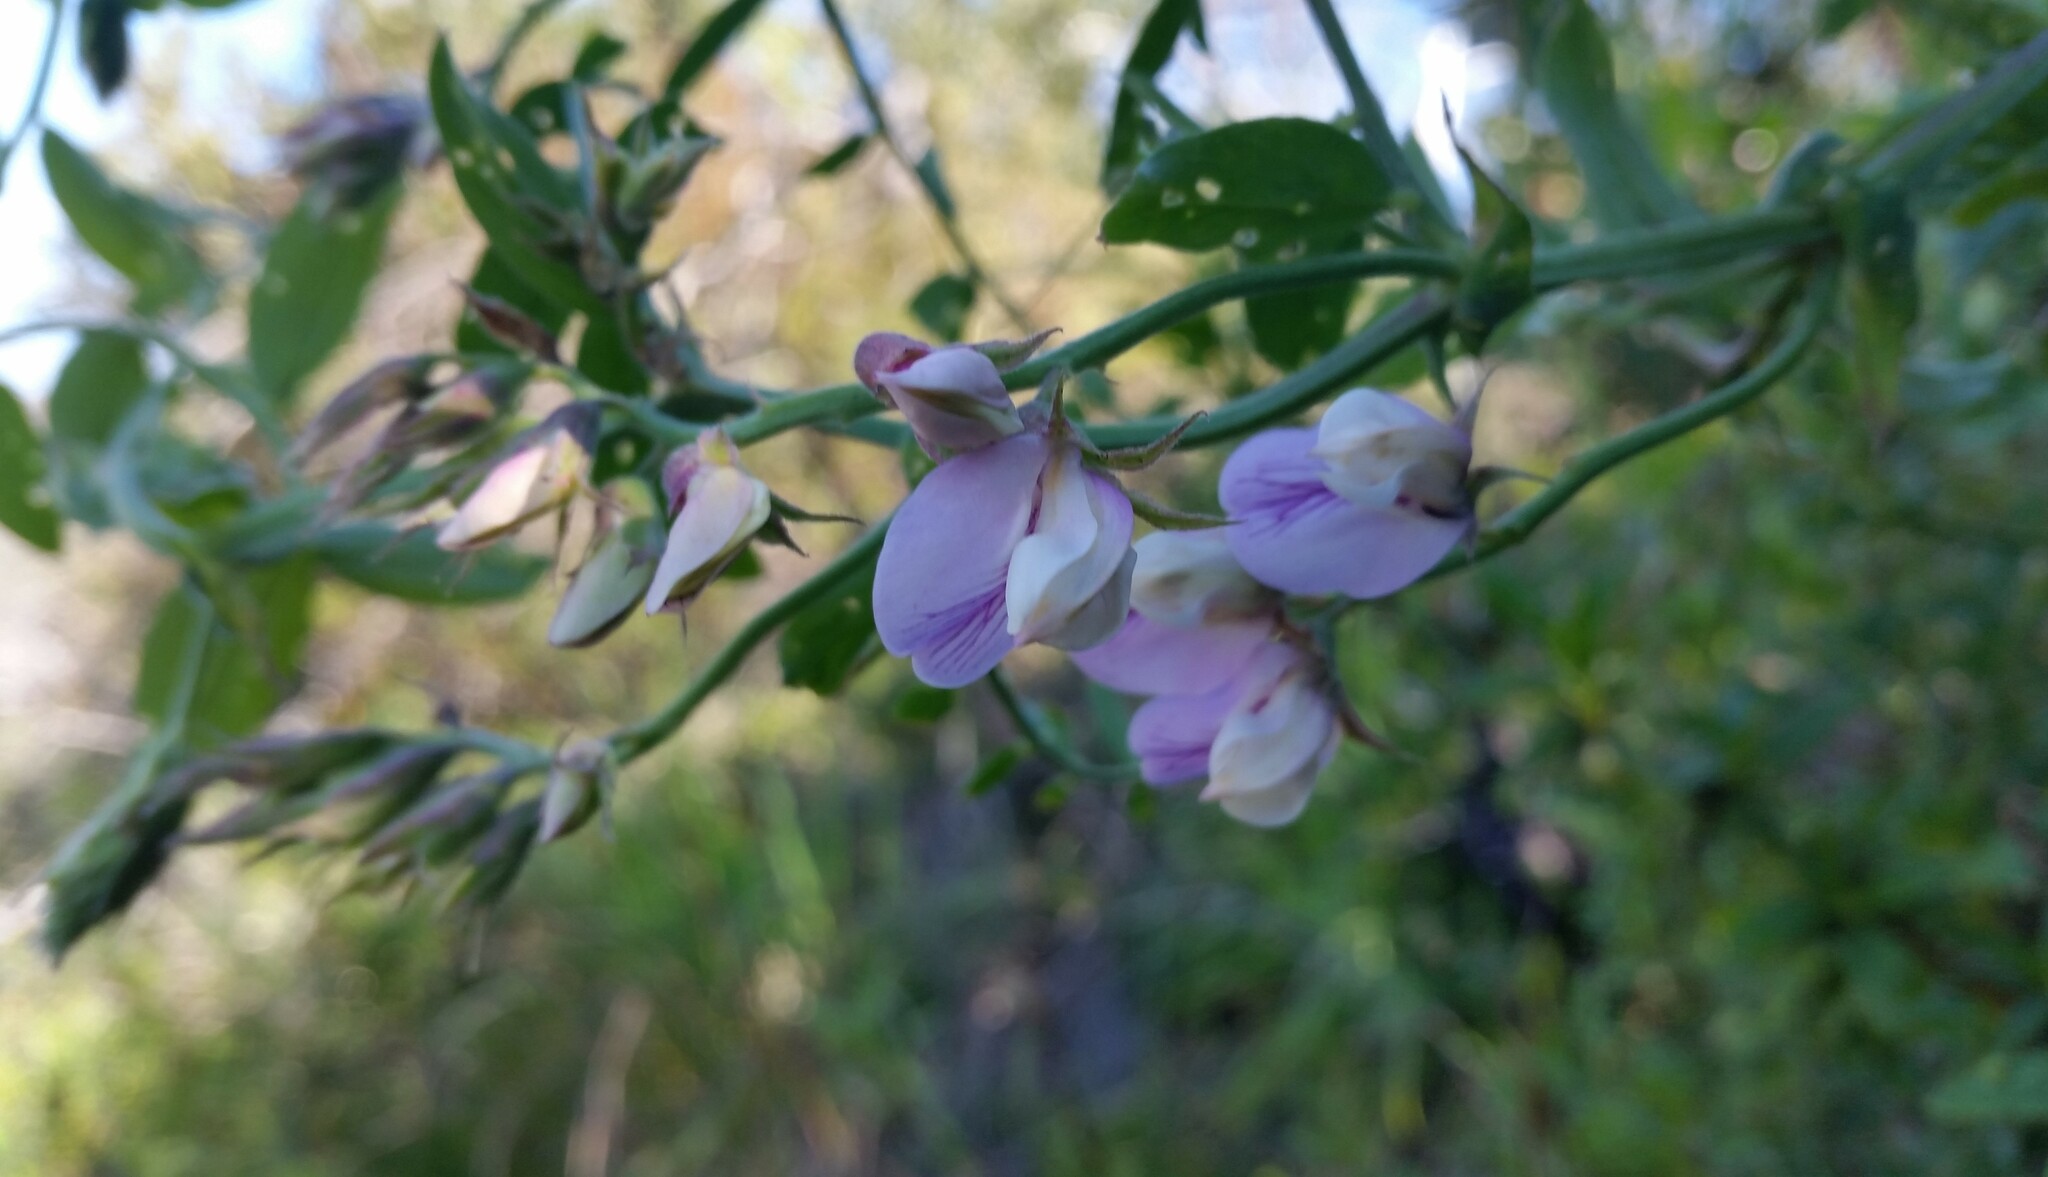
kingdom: Plantae
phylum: Tracheophyta
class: Magnoliopsida
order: Fabales
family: Fabaceae
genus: Lathyrus
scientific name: Lathyrus vestitus
